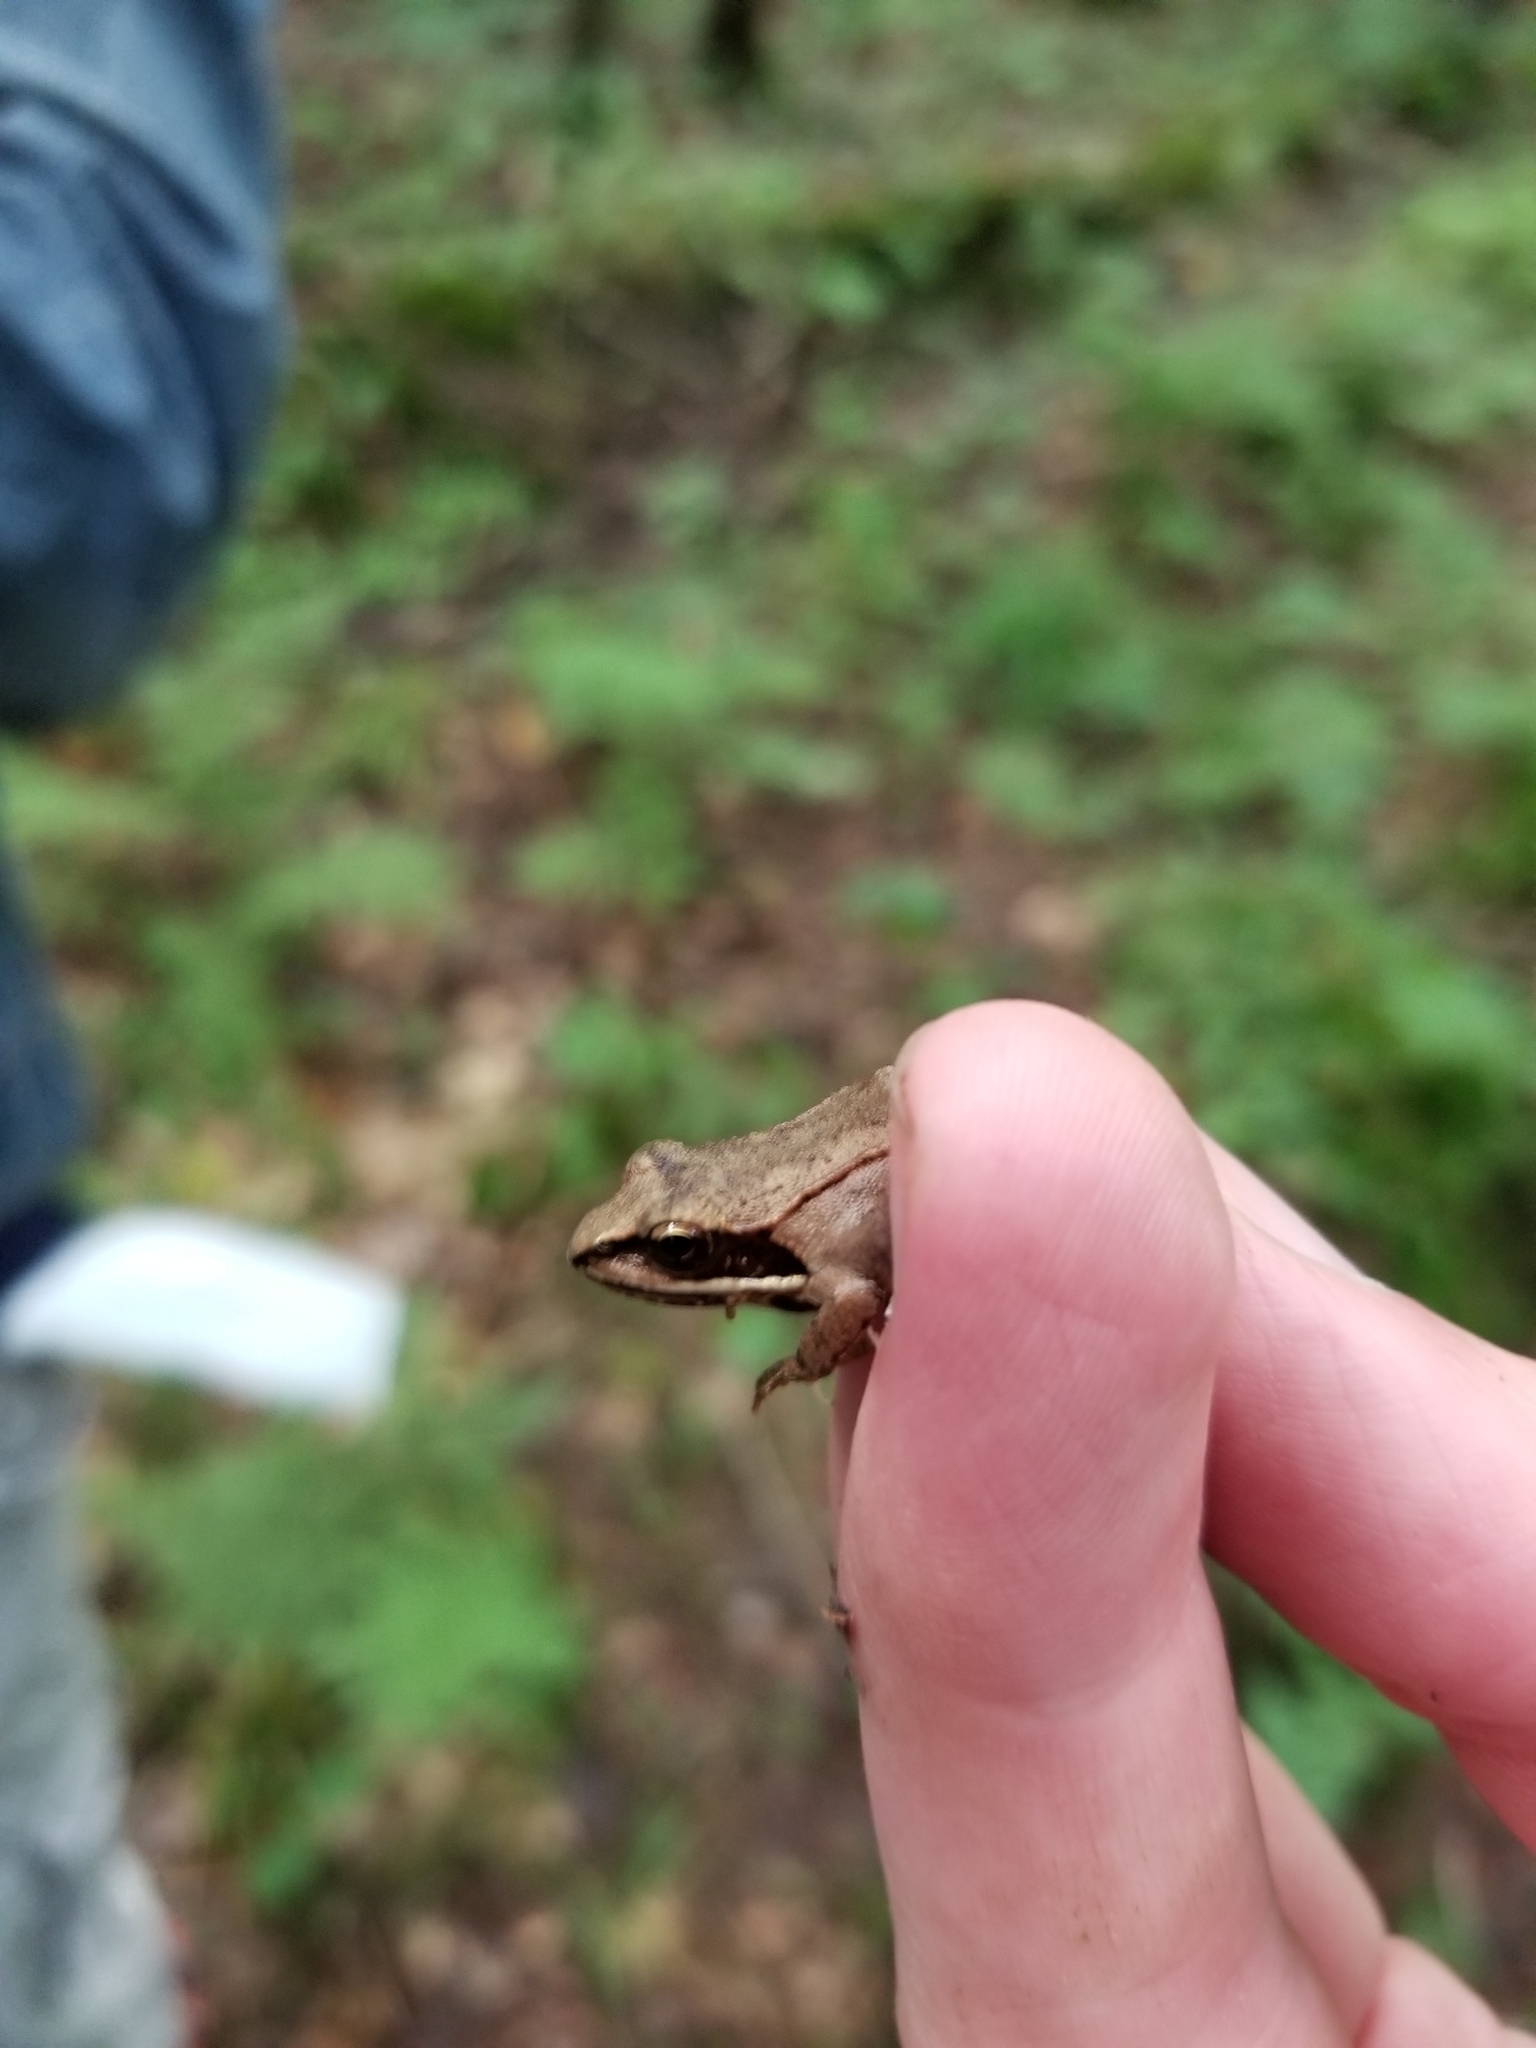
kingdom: Animalia
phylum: Chordata
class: Amphibia
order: Anura
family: Ranidae
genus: Lithobates
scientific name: Lithobates sylvaticus
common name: Wood frog
